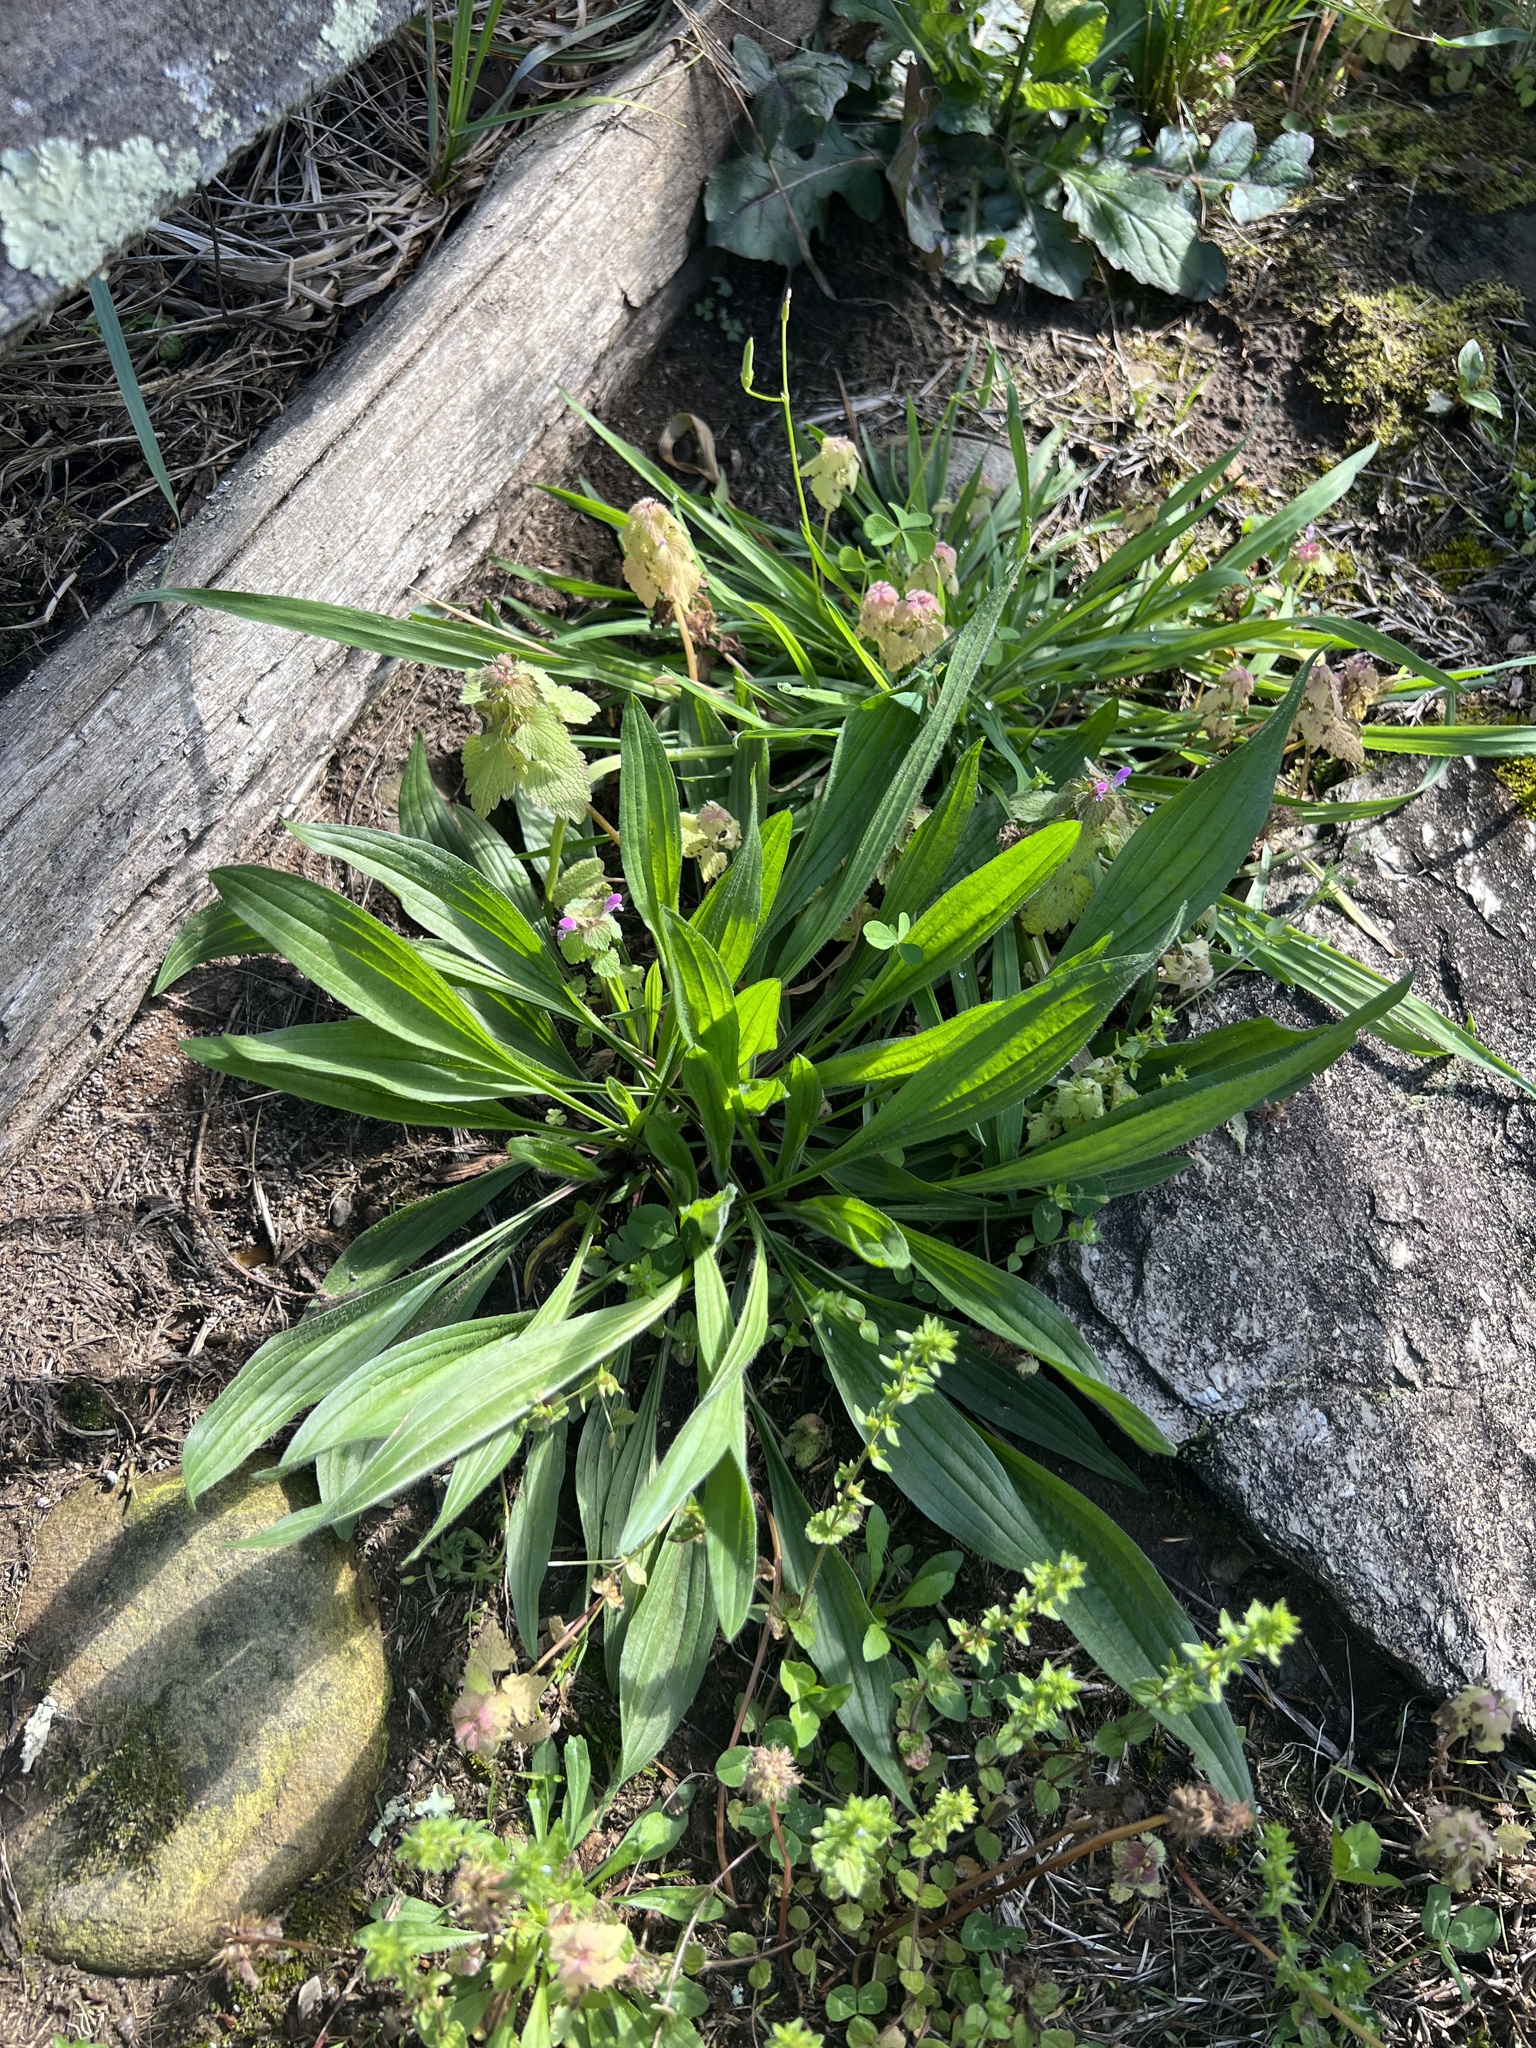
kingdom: Plantae
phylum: Tracheophyta
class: Magnoliopsida
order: Lamiales
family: Plantaginaceae
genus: Plantago
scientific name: Plantago lanceolata
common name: Ribwort plantain
